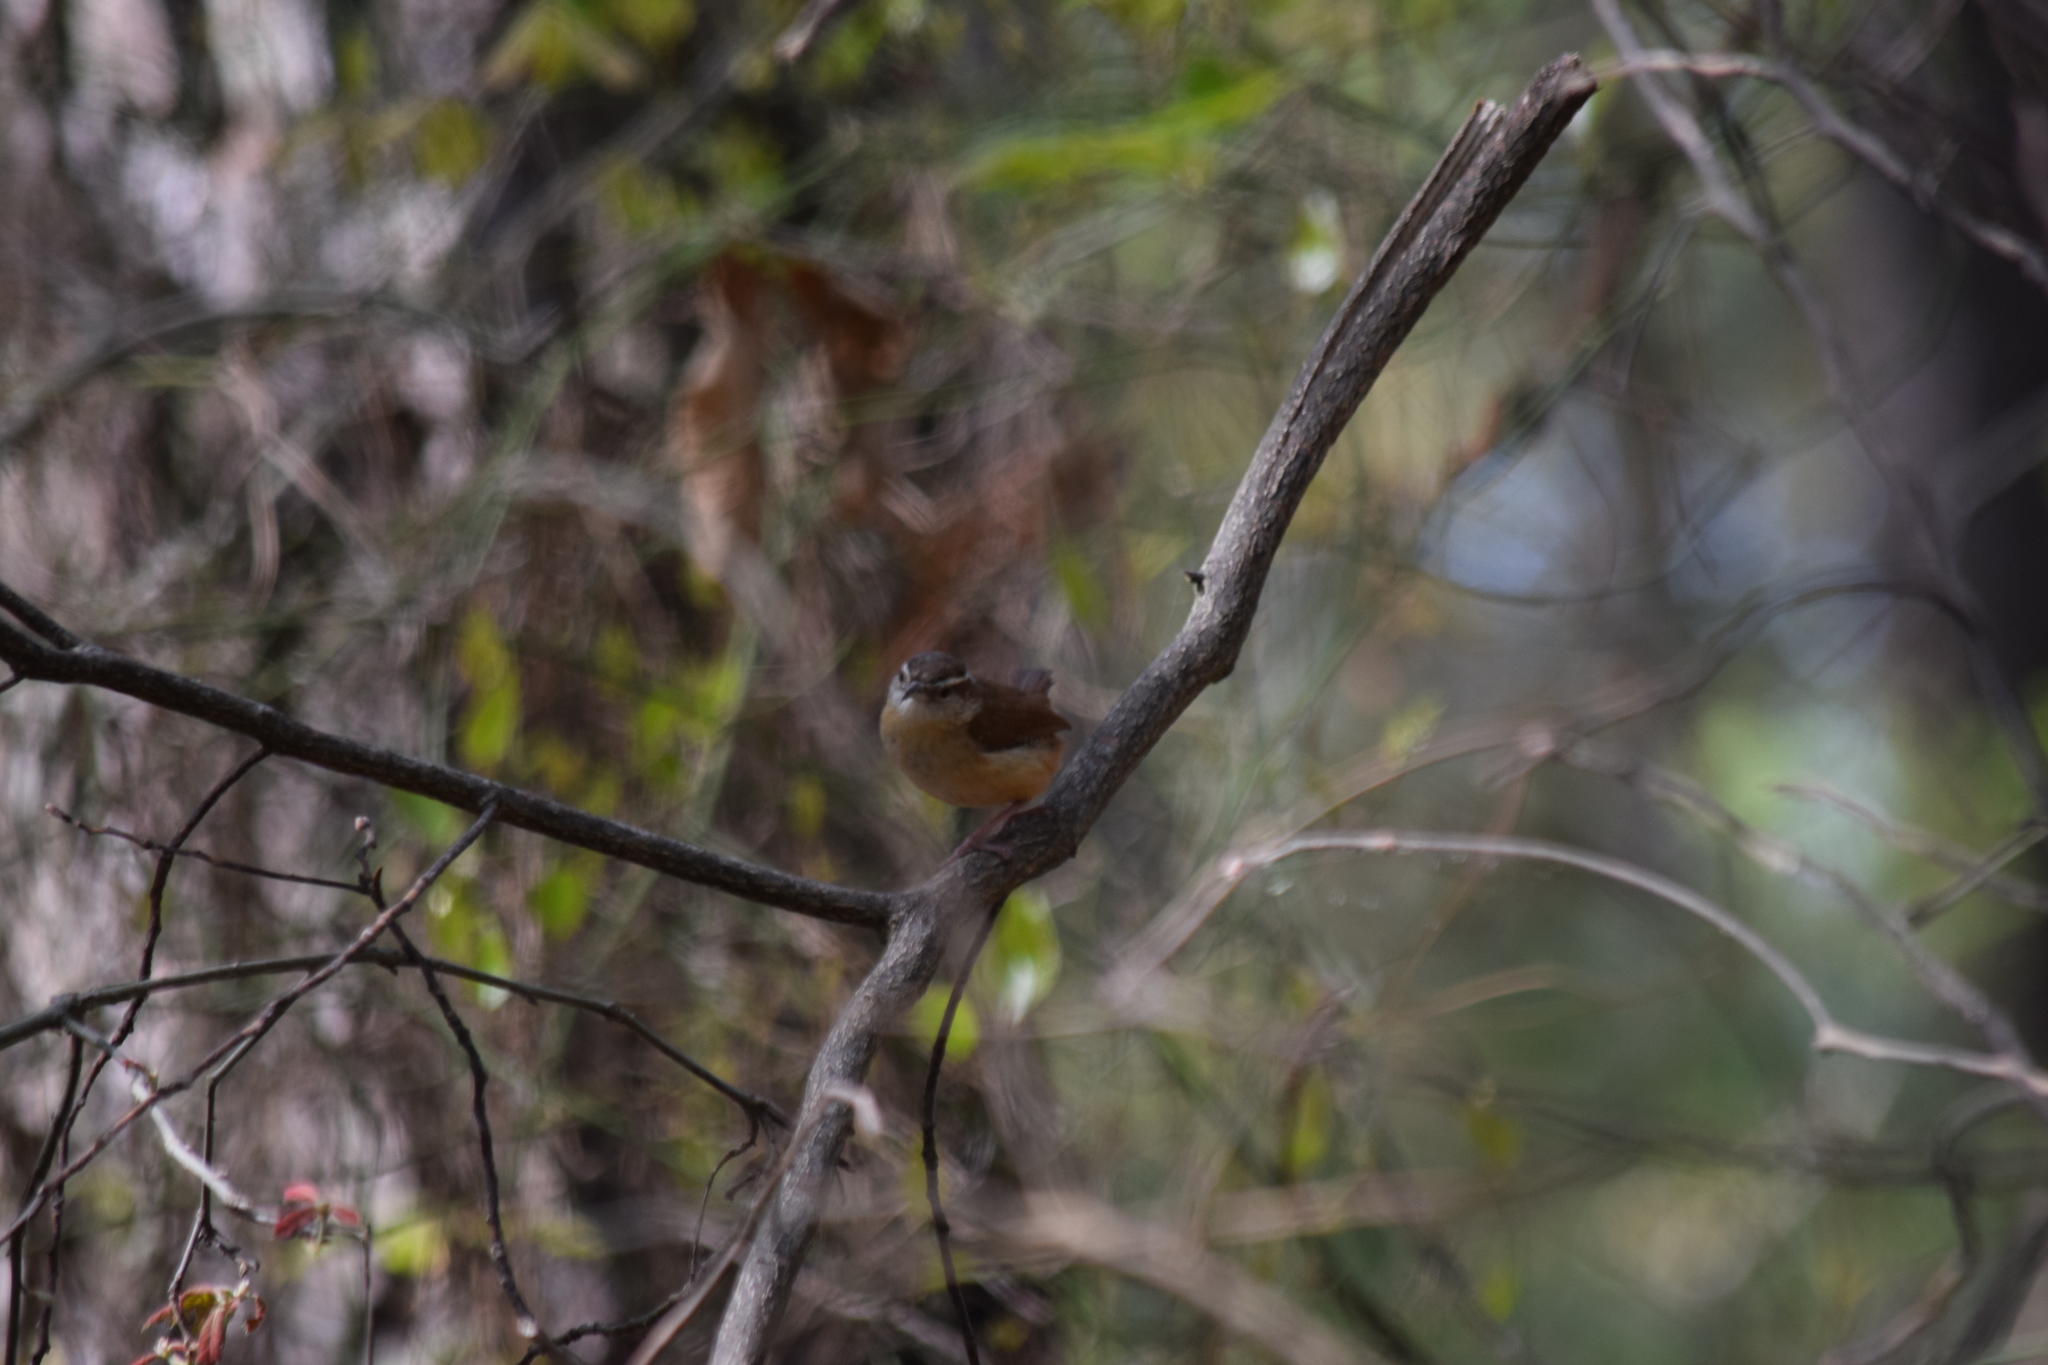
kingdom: Animalia
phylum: Chordata
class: Aves
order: Passeriformes
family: Troglodytidae
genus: Thryothorus
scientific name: Thryothorus ludovicianus
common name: Carolina wren
